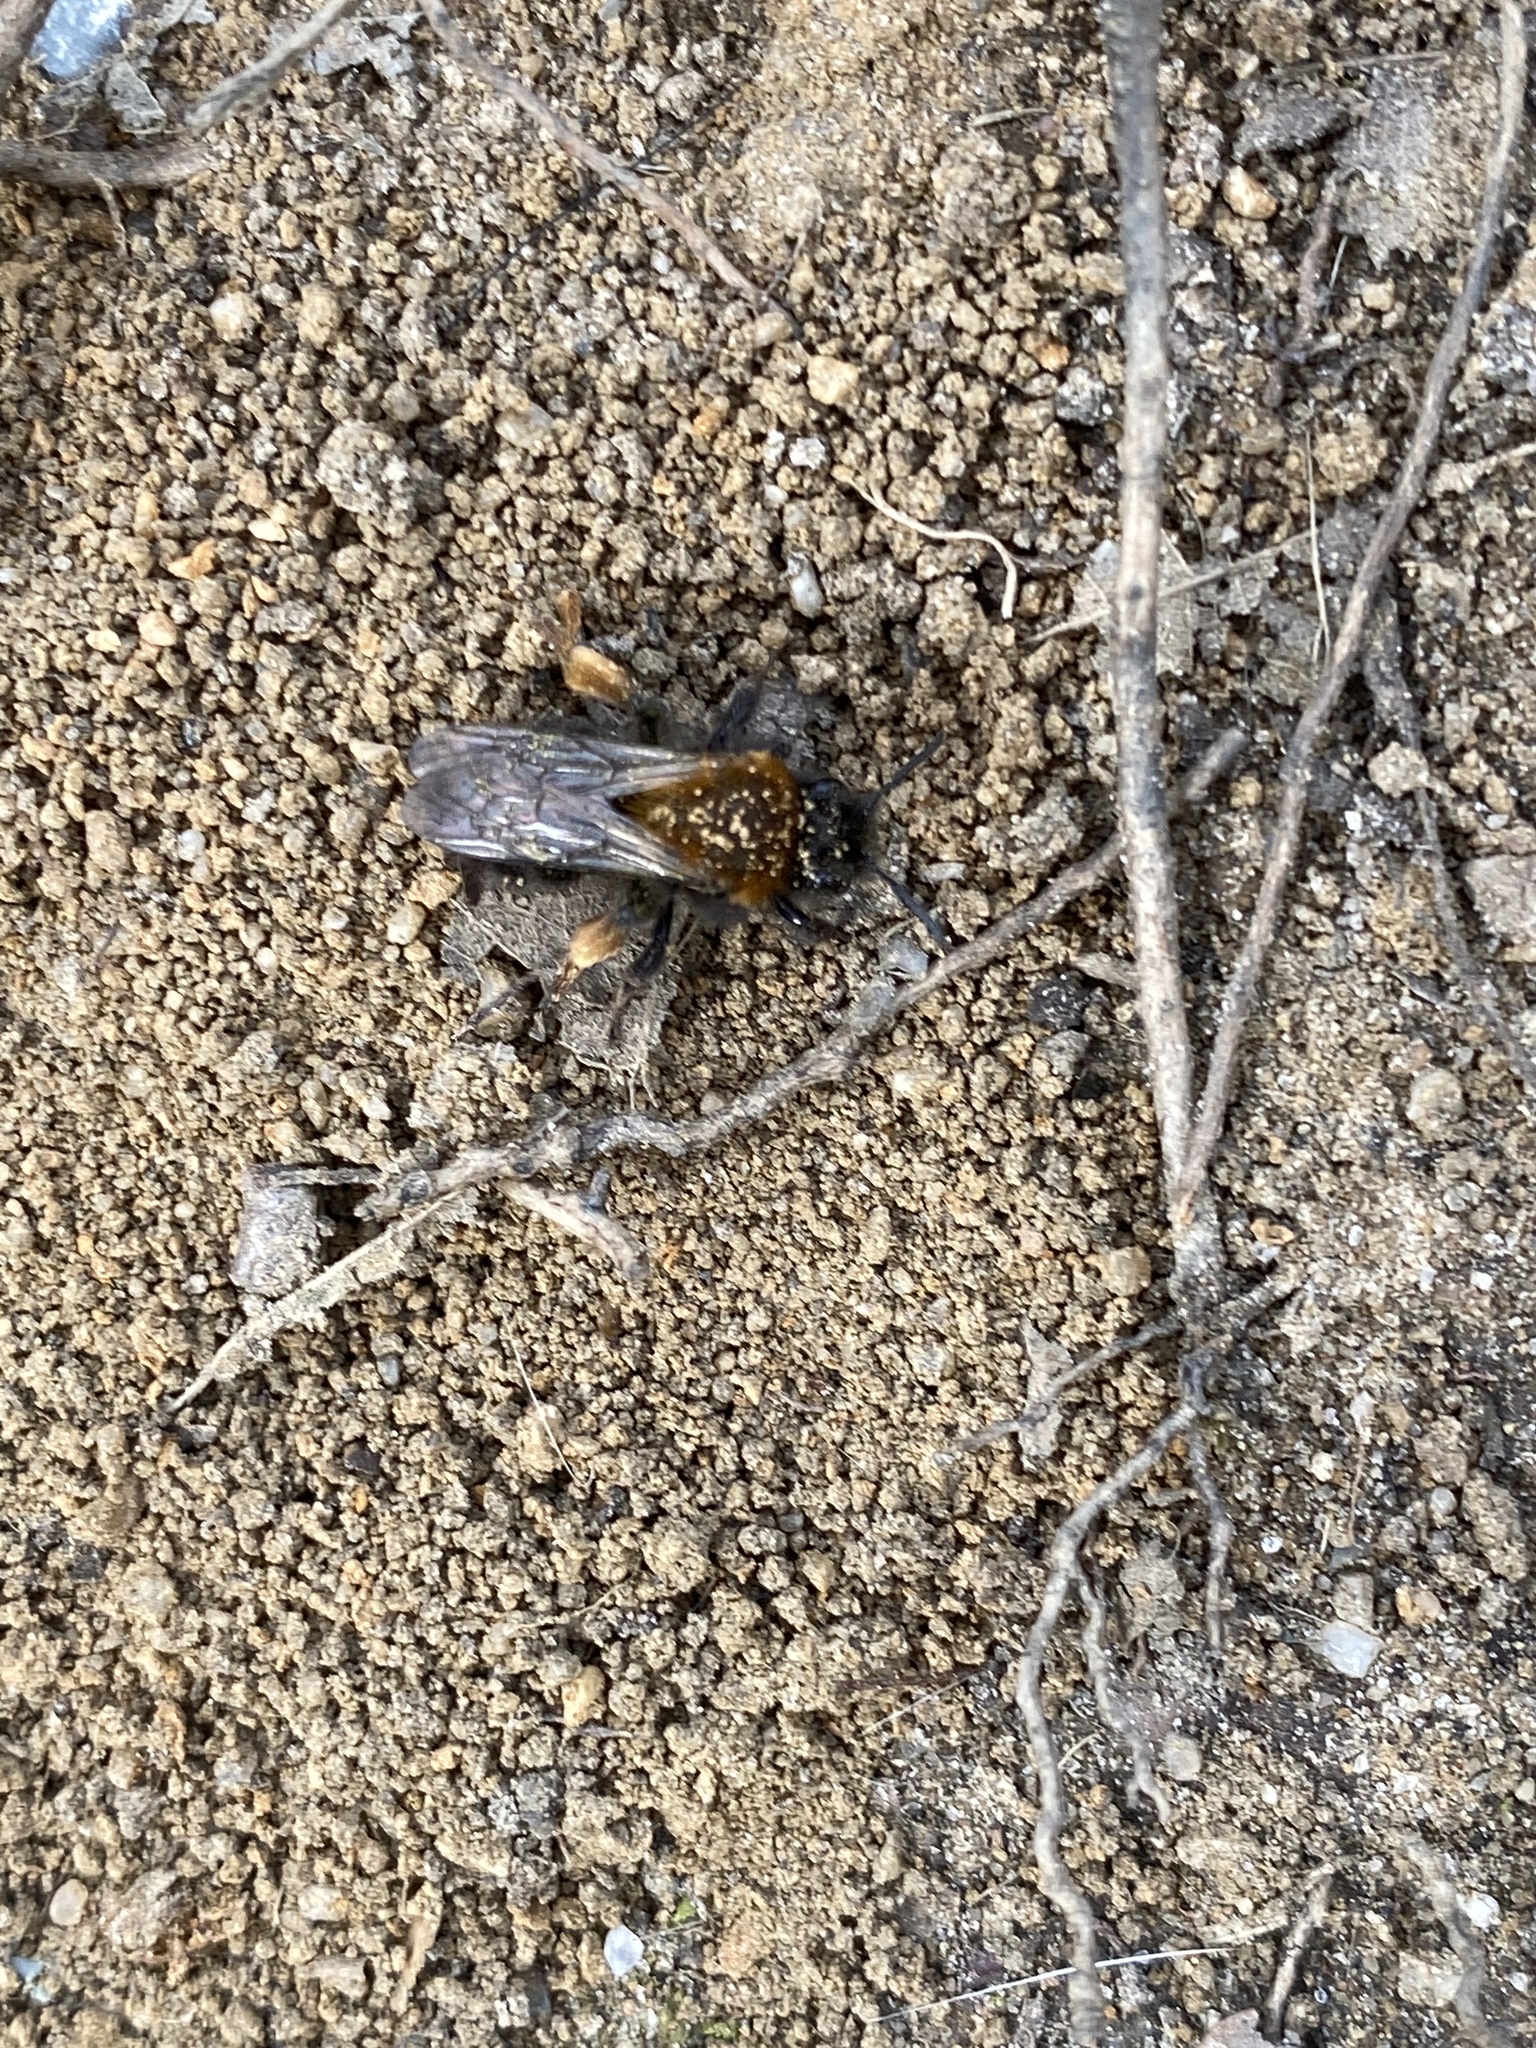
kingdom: Animalia
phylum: Arthropoda
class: Insecta
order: Hymenoptera
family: Andrenidae
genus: Andrena
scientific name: Andrena clarkella
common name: Clarke's mining bee
